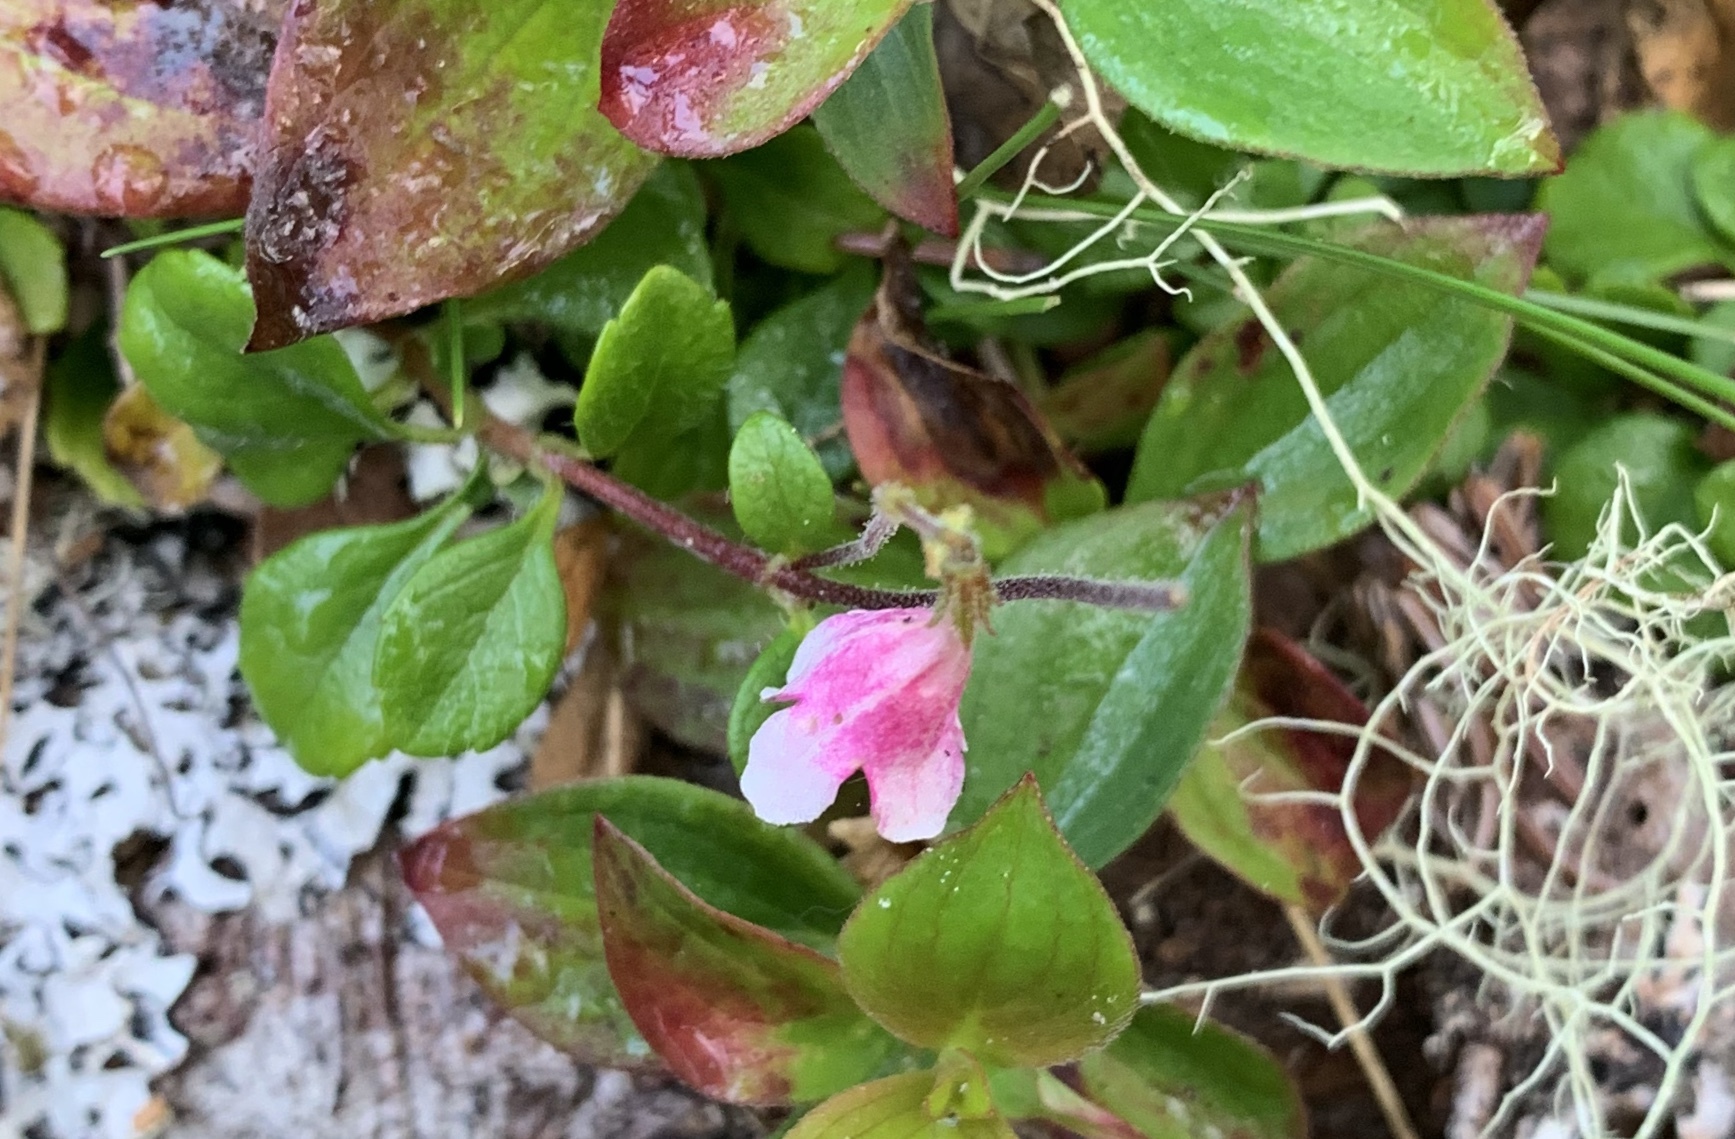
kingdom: Plantae
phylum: Tracheophyta
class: Magnoliopsida
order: Dipsacales
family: Caprifoliaceae
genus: Linnaea
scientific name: Linnaea borealis
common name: Twinflower
